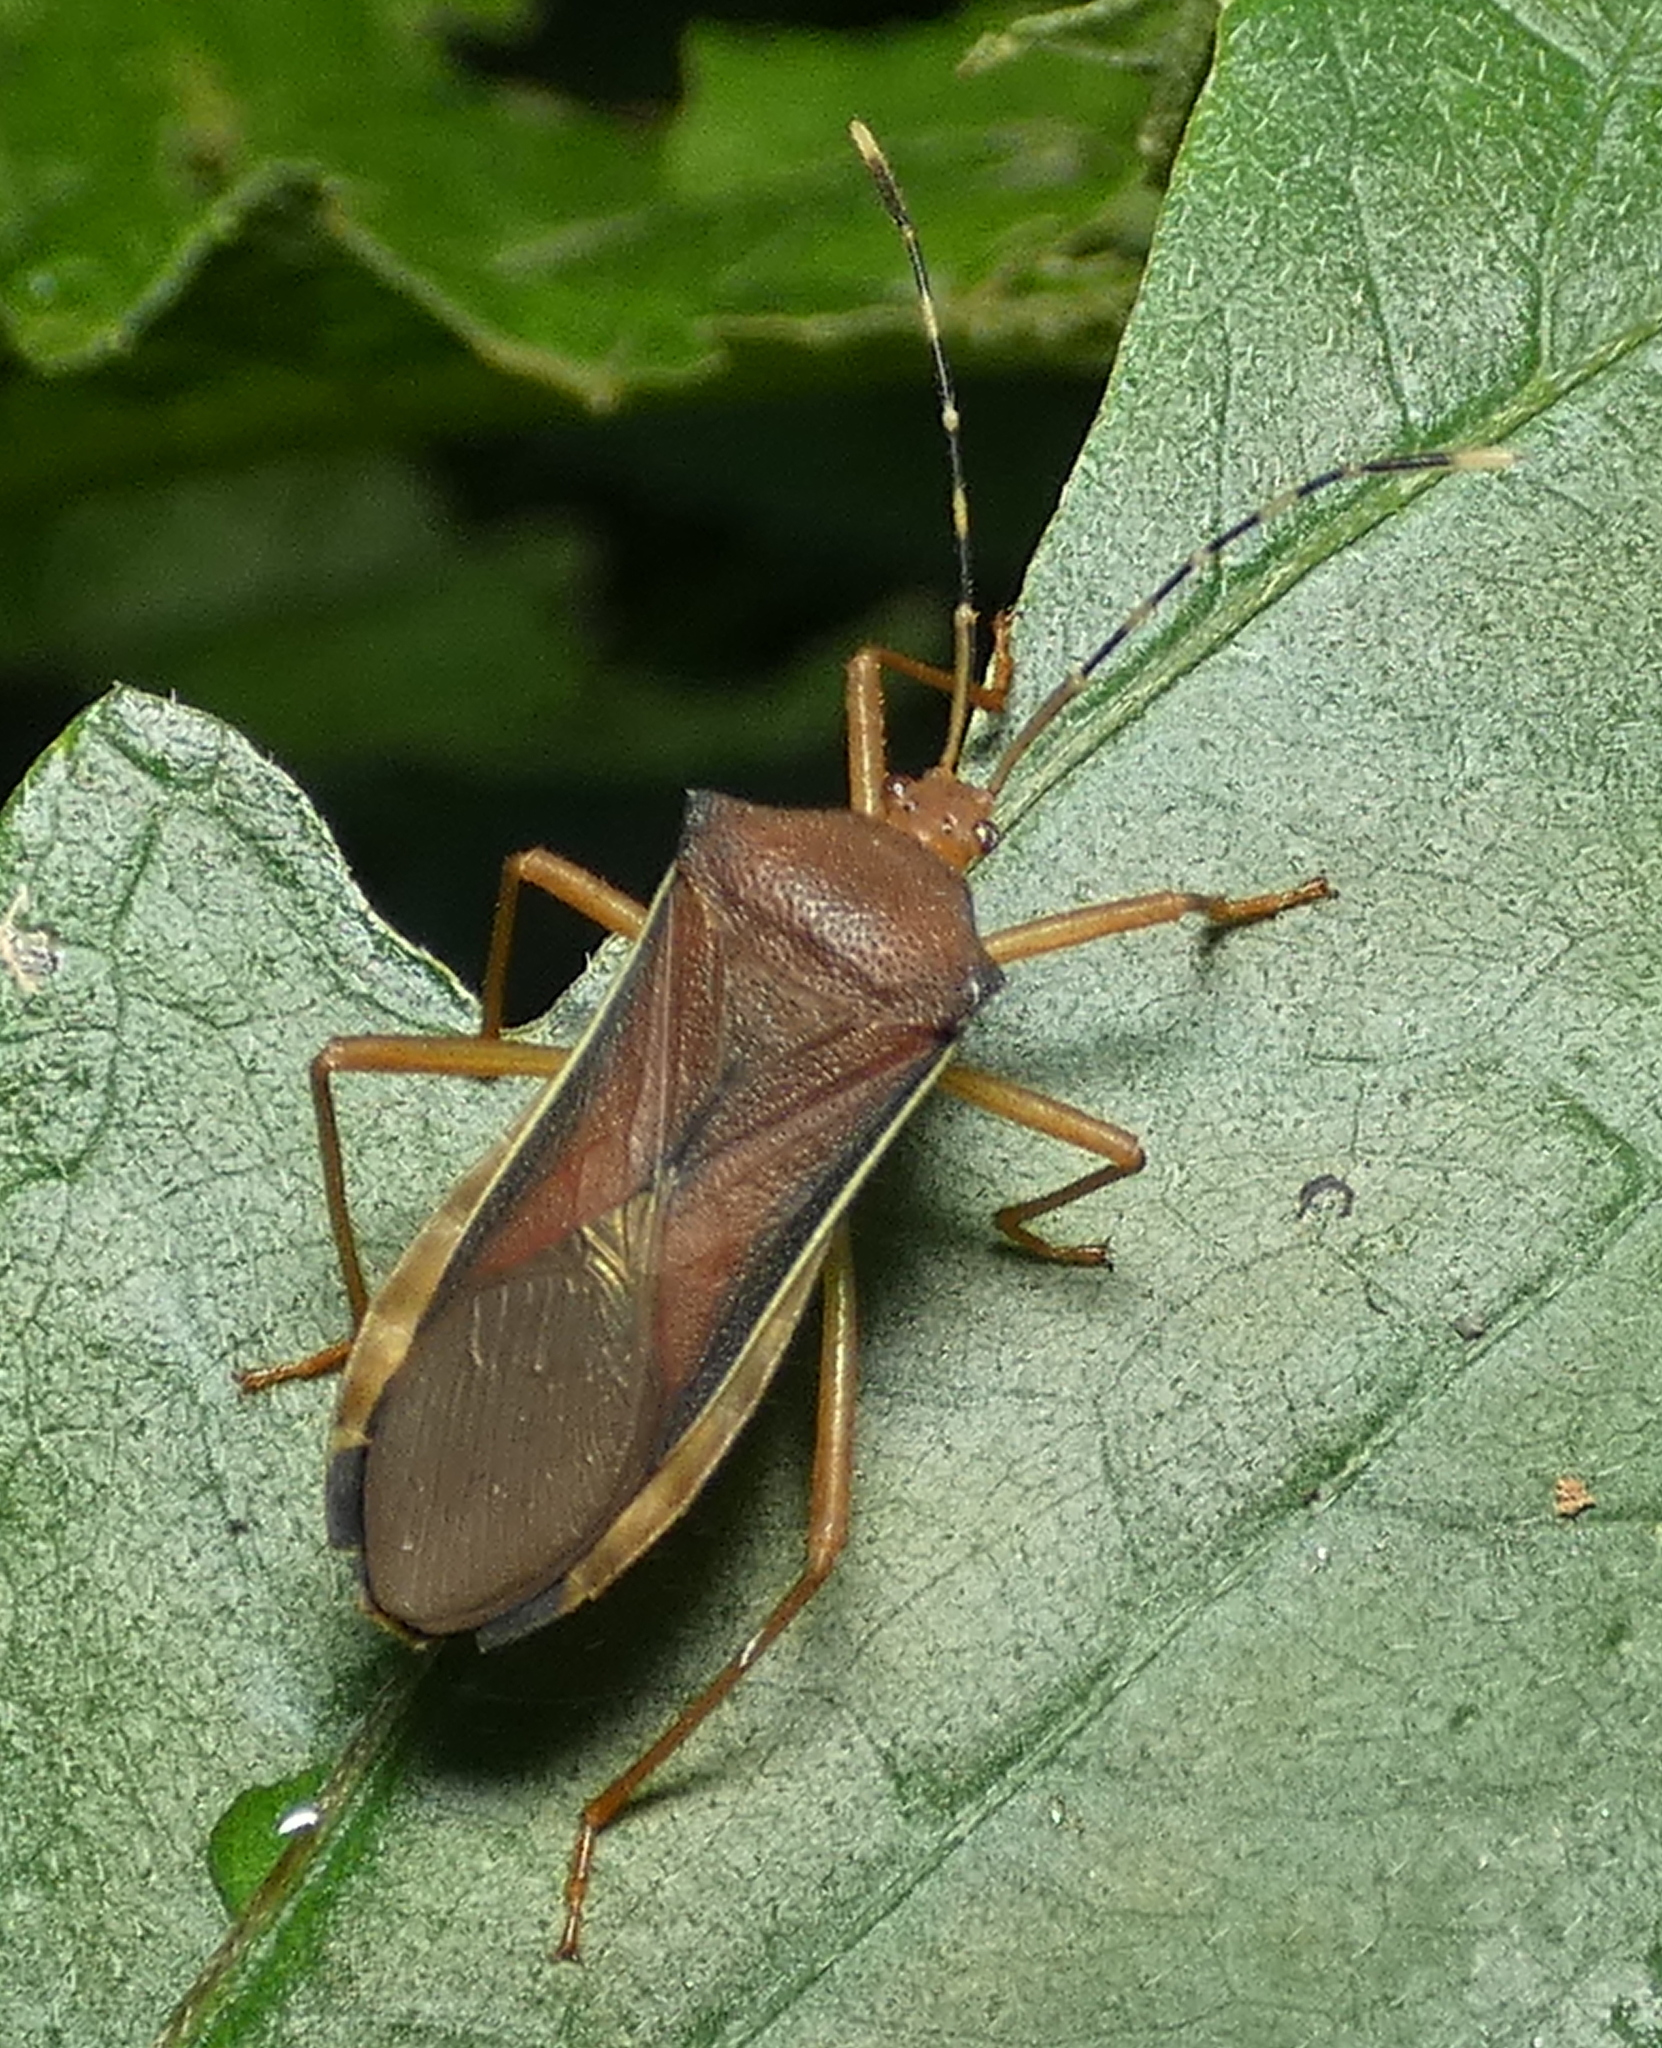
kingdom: Animalia
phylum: Arthropoda
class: Insecta
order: Hemiptera
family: Coreidae
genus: Anasa
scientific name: Anasa varicornis
